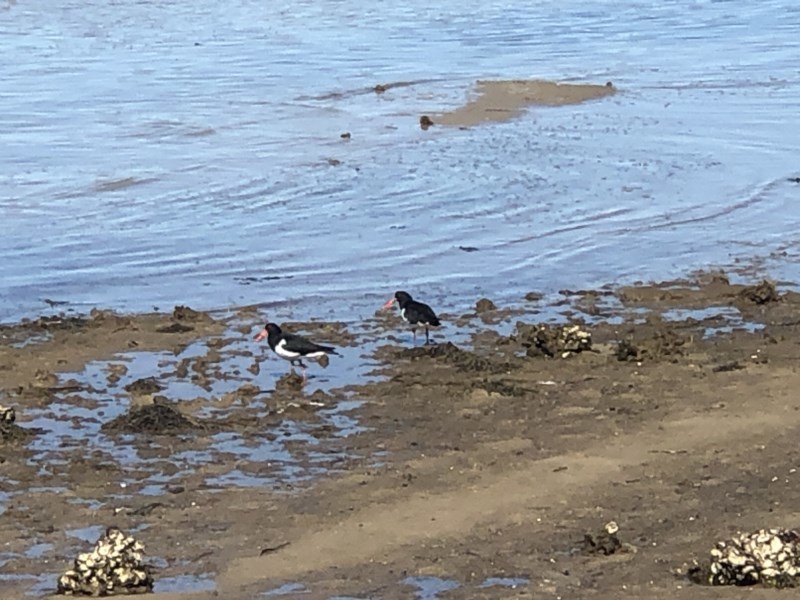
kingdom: Animalia
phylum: Chordata
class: Aves
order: Charadriiformes
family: Haematopodidae
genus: Haematopus
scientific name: Haematopus longirostris
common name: Pied oystercatcher
